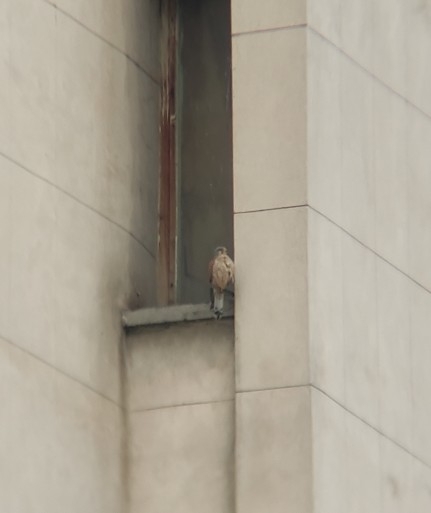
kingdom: Animalia
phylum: Chordata
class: Aves
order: Falconiformes
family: Falconidae
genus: Falco
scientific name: Falco tinnunculus
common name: Common kestrel
